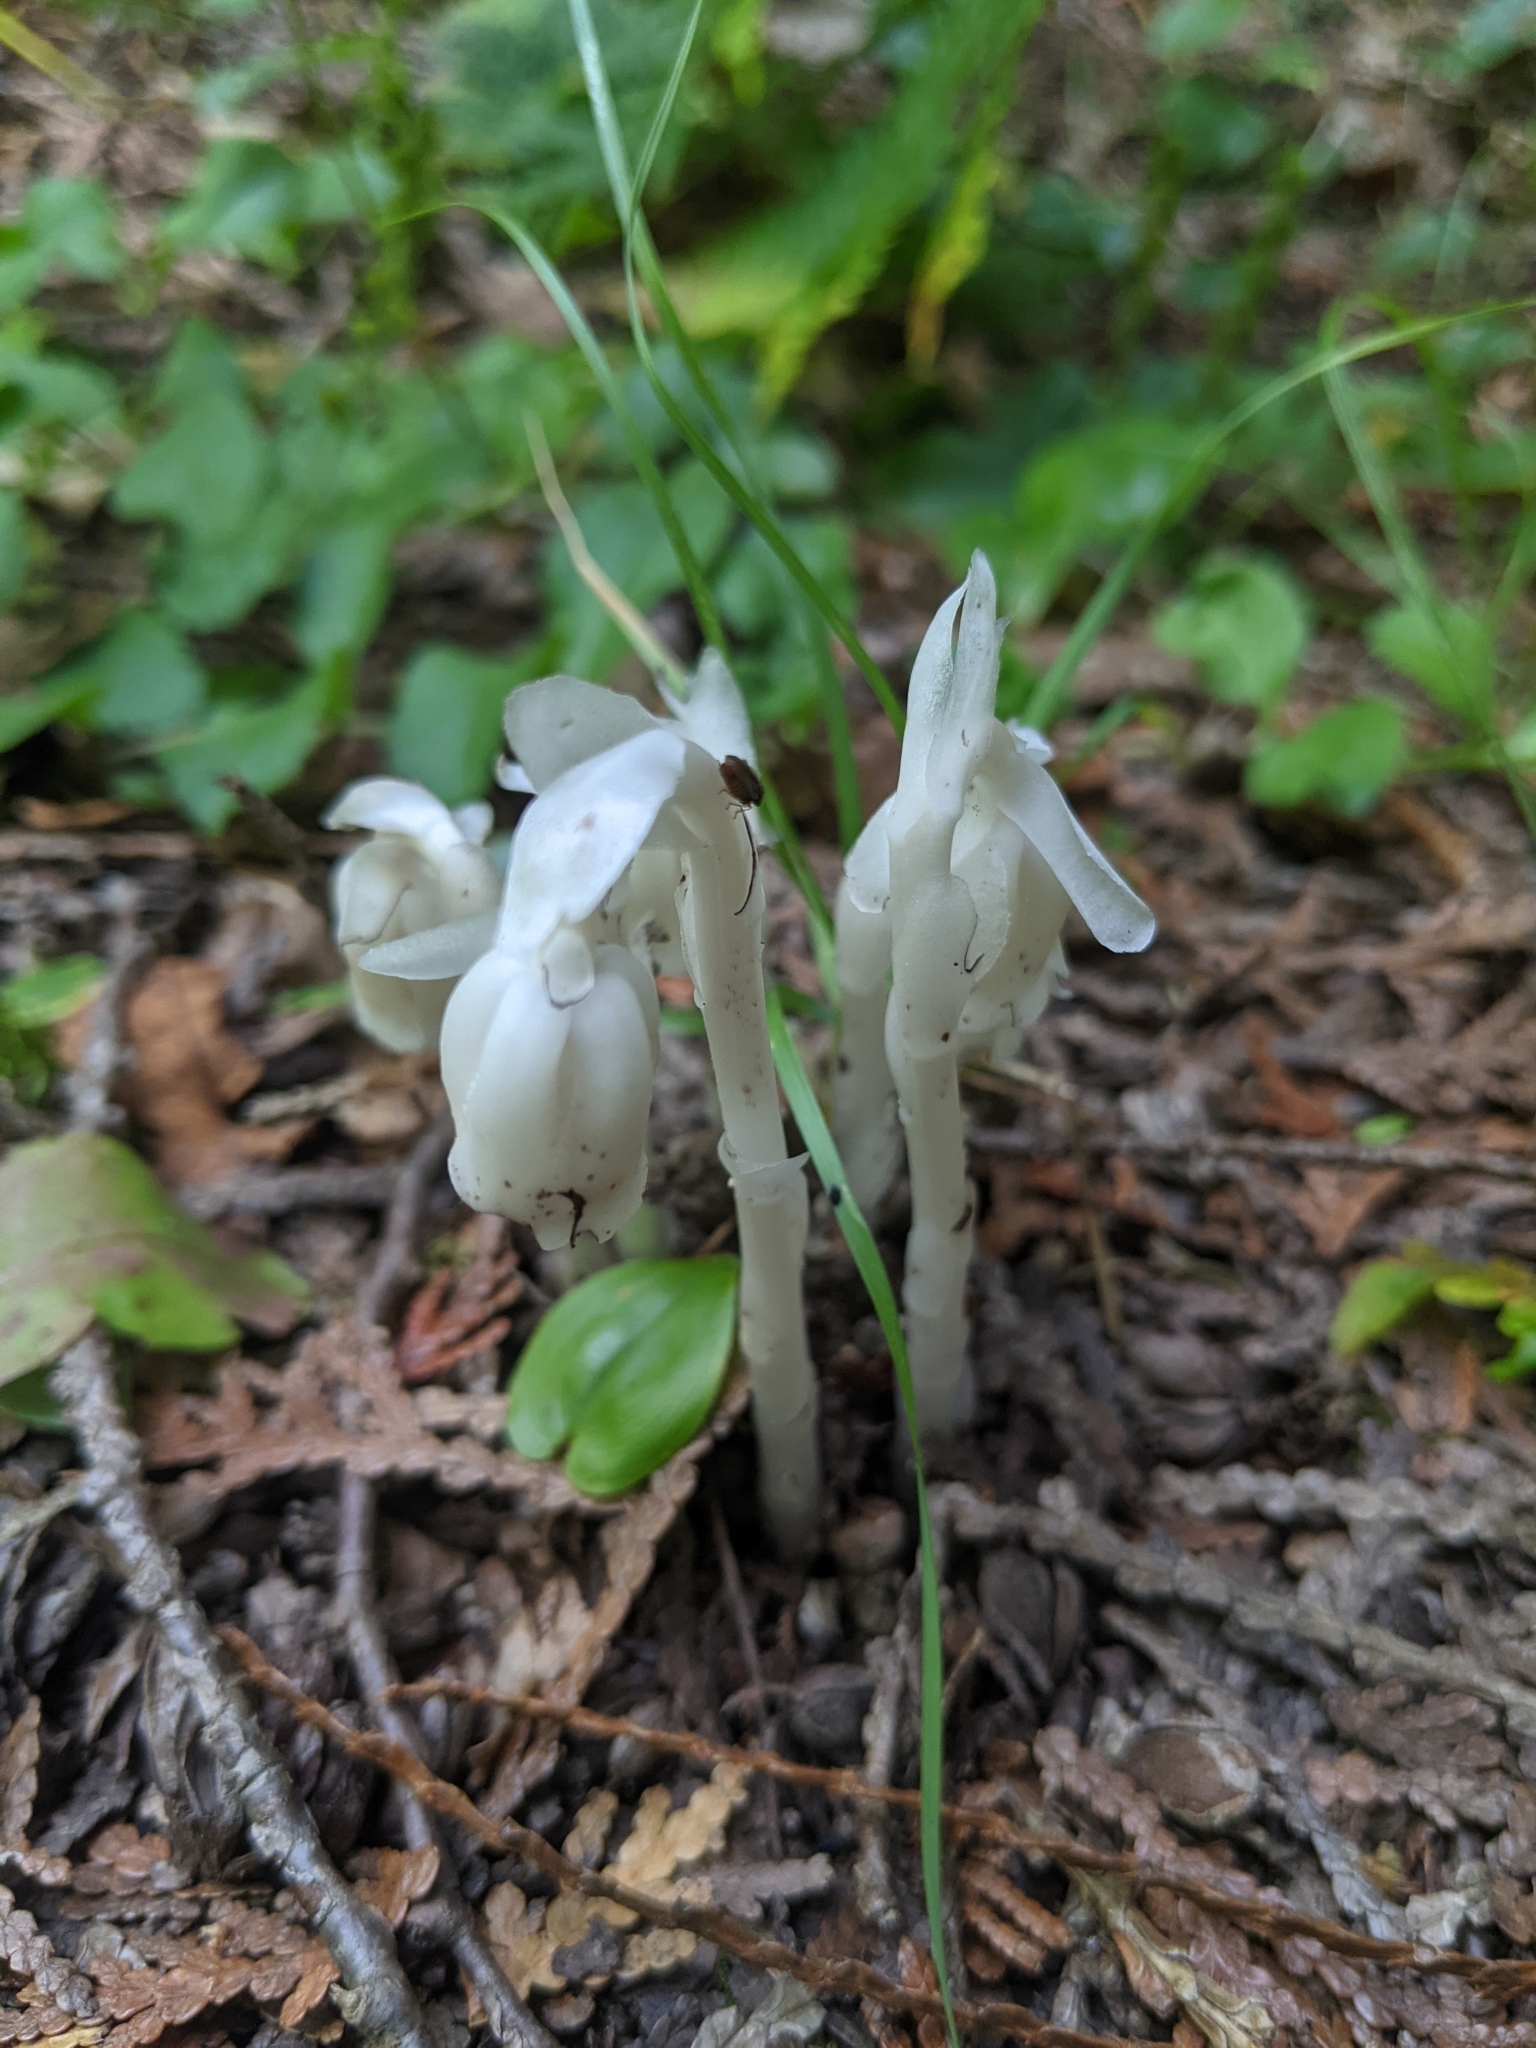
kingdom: Plantae
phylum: Tracheophyta
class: Magnoliopsida
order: Ericales
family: Ericaceae
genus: Monotropa
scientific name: Monotropa uniflora
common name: Convulsion root
